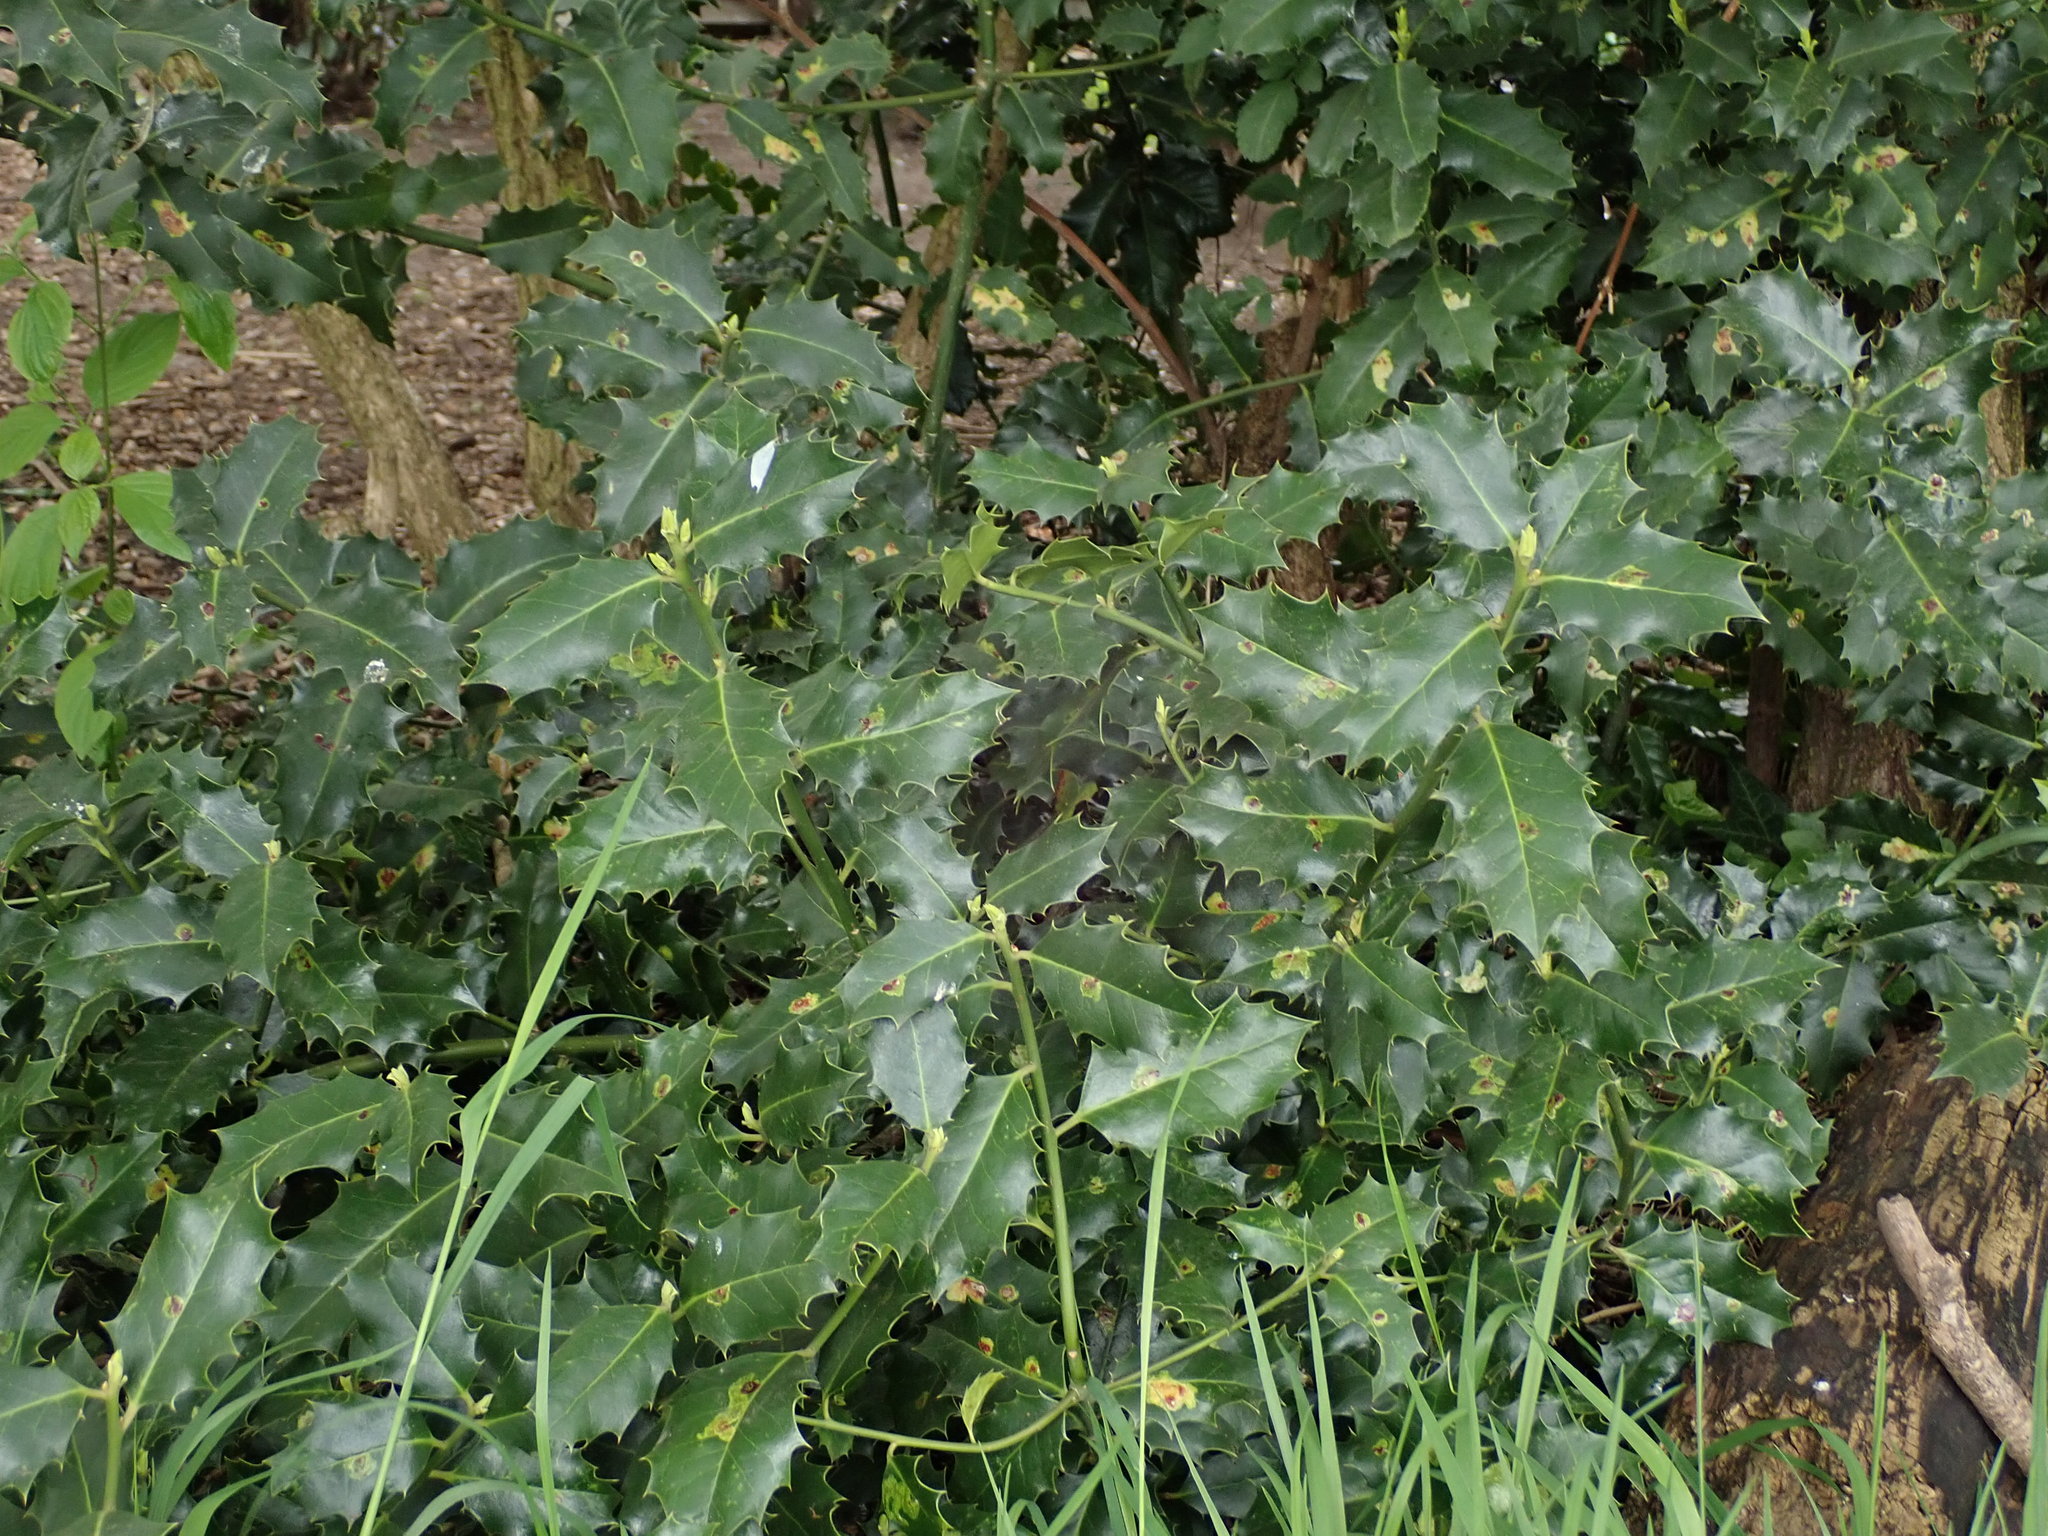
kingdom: Plantae
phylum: Tracheophyta
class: Magnoliopsida
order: Aquifoliales
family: Aquifoliaceae
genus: Ilex
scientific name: Ilex aquifolium
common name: English holly
